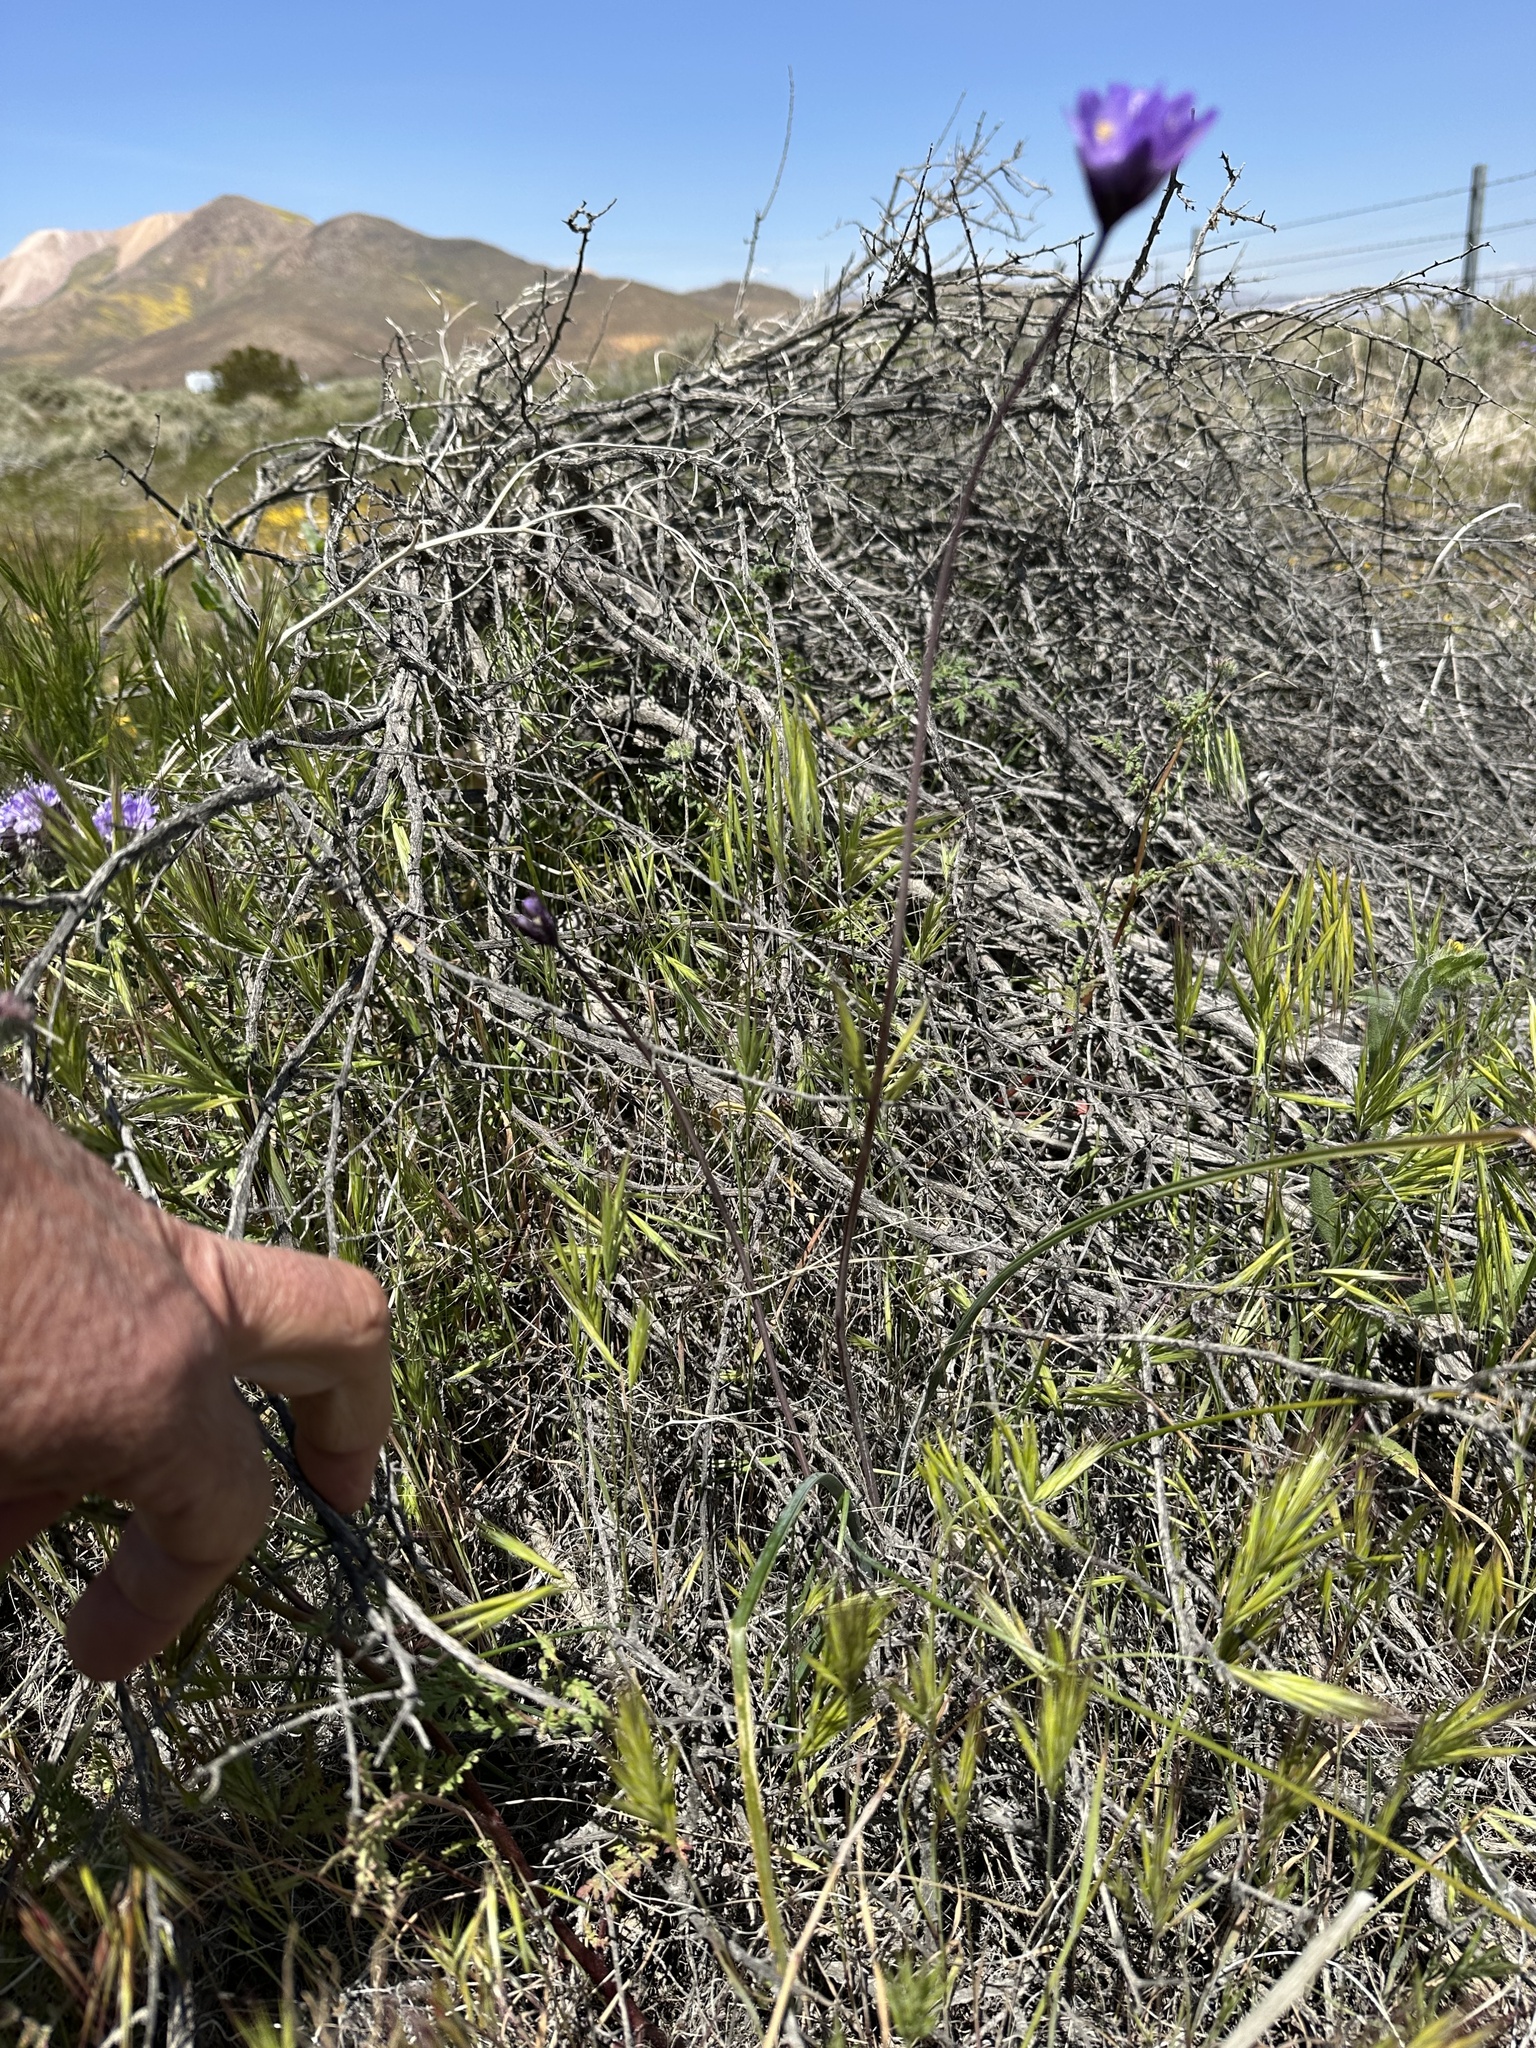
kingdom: Plantae
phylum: Tracheophyta
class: Liliopsida
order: Asparagales
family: Asparagaceae
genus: Dipterostemon
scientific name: Dipterostemon capitatus
